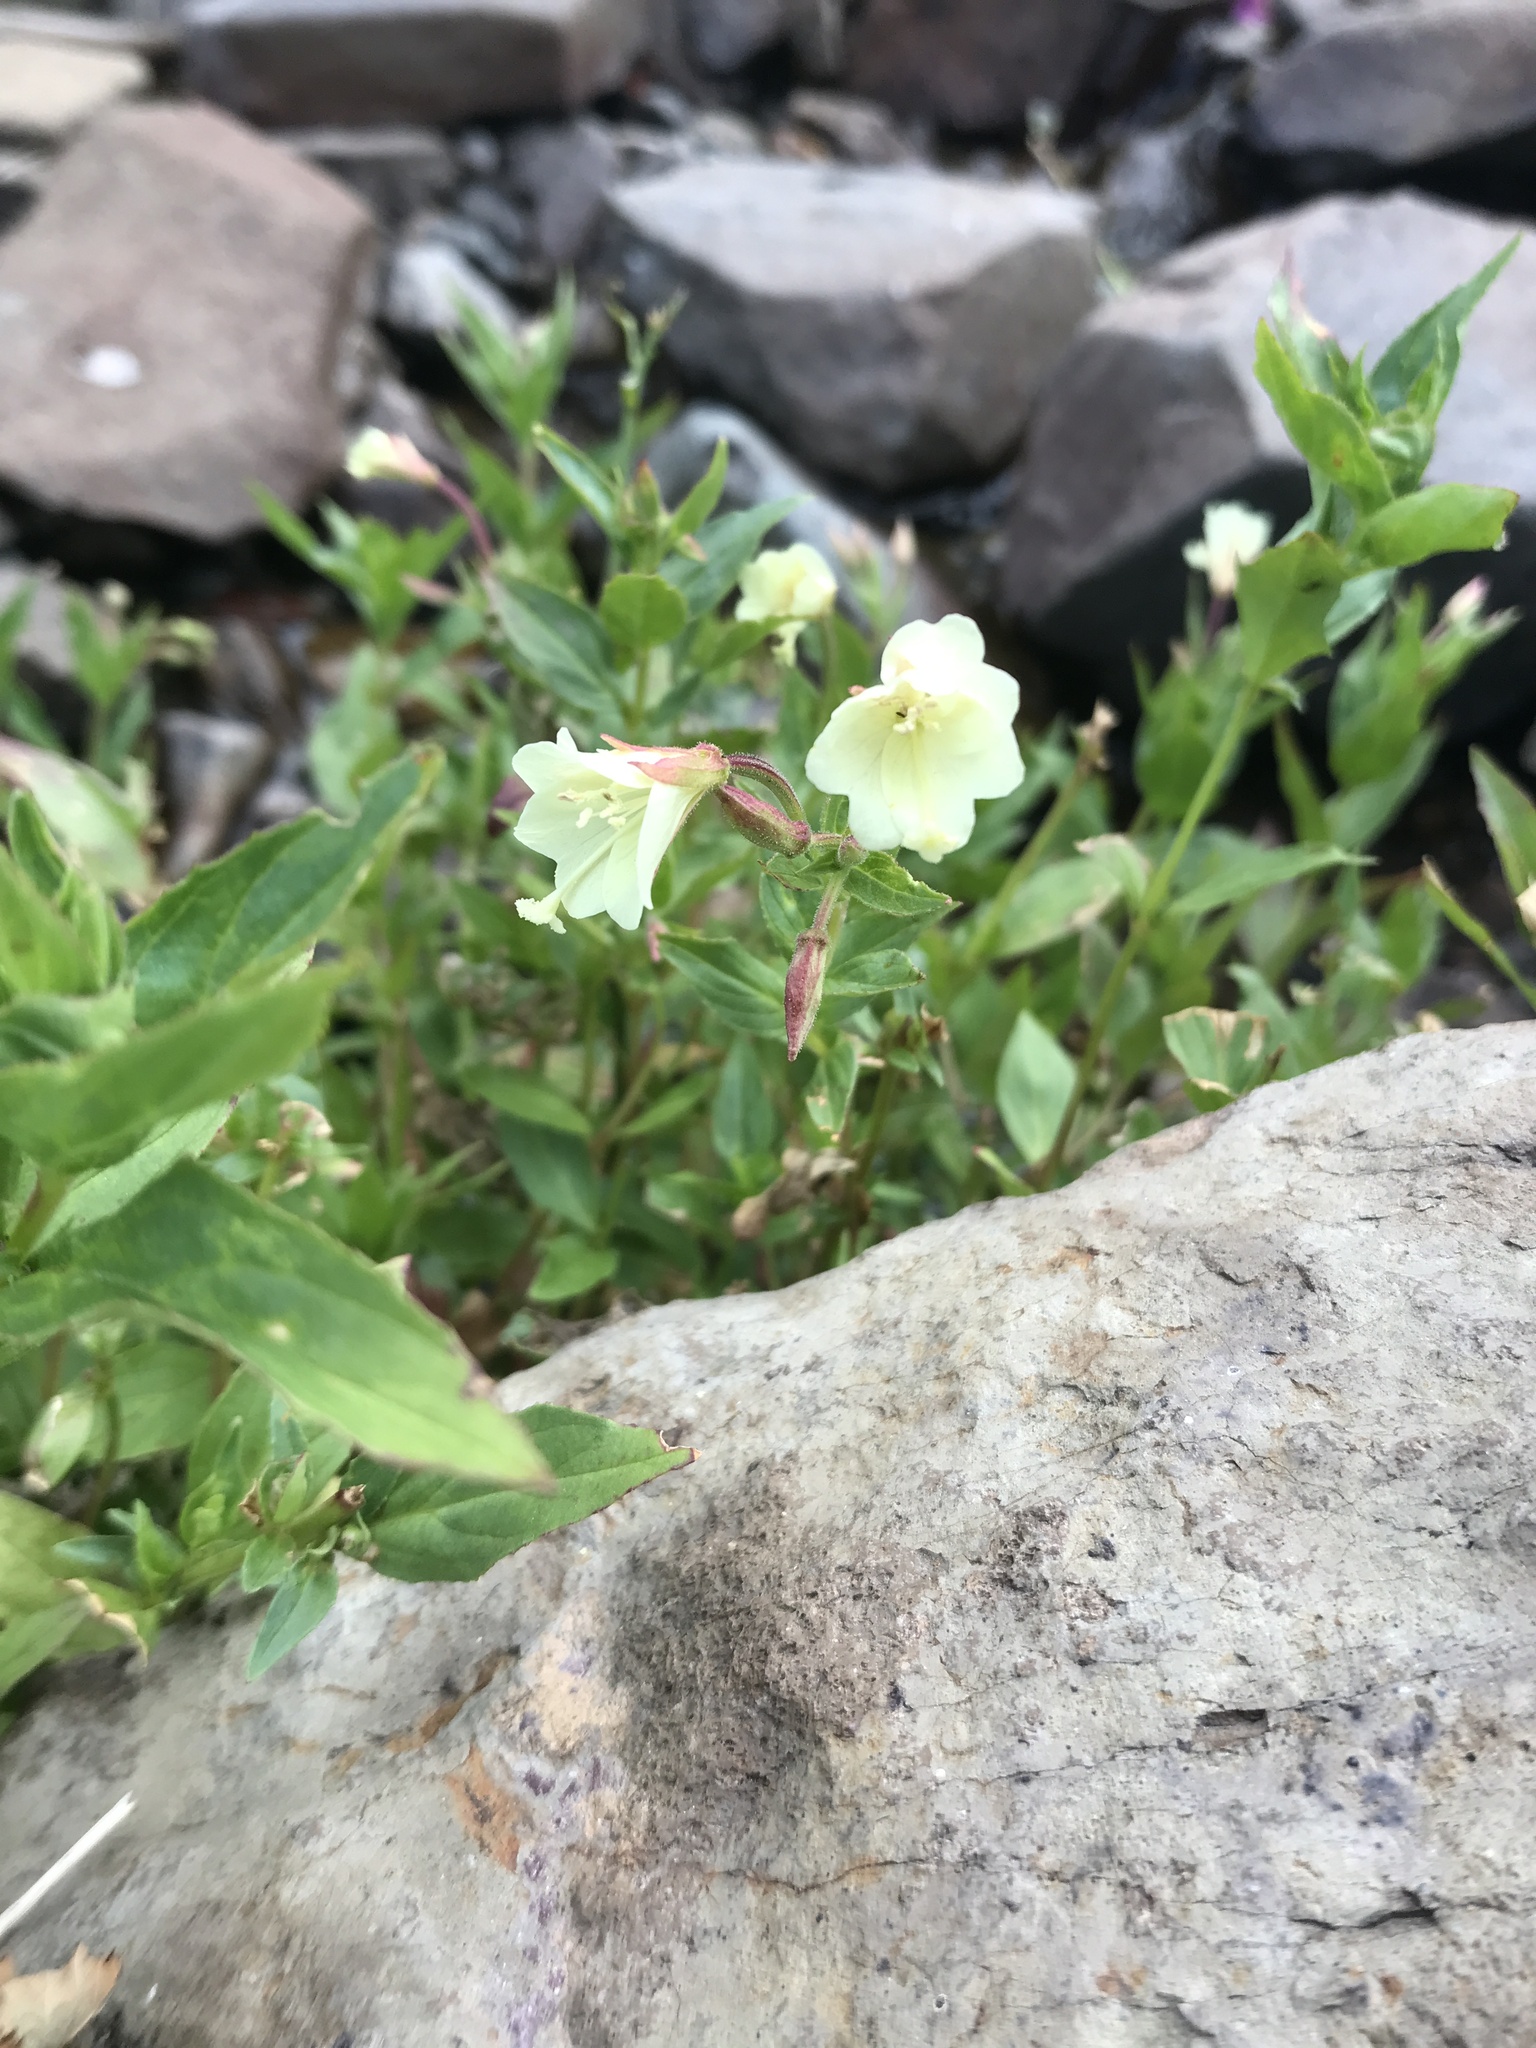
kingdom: Plantae
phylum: Tracheophyta
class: Magnoliopsida
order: Myrtales
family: Onagraceae
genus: Epilobium
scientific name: Epilobium luteum
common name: Yellow willowherb
